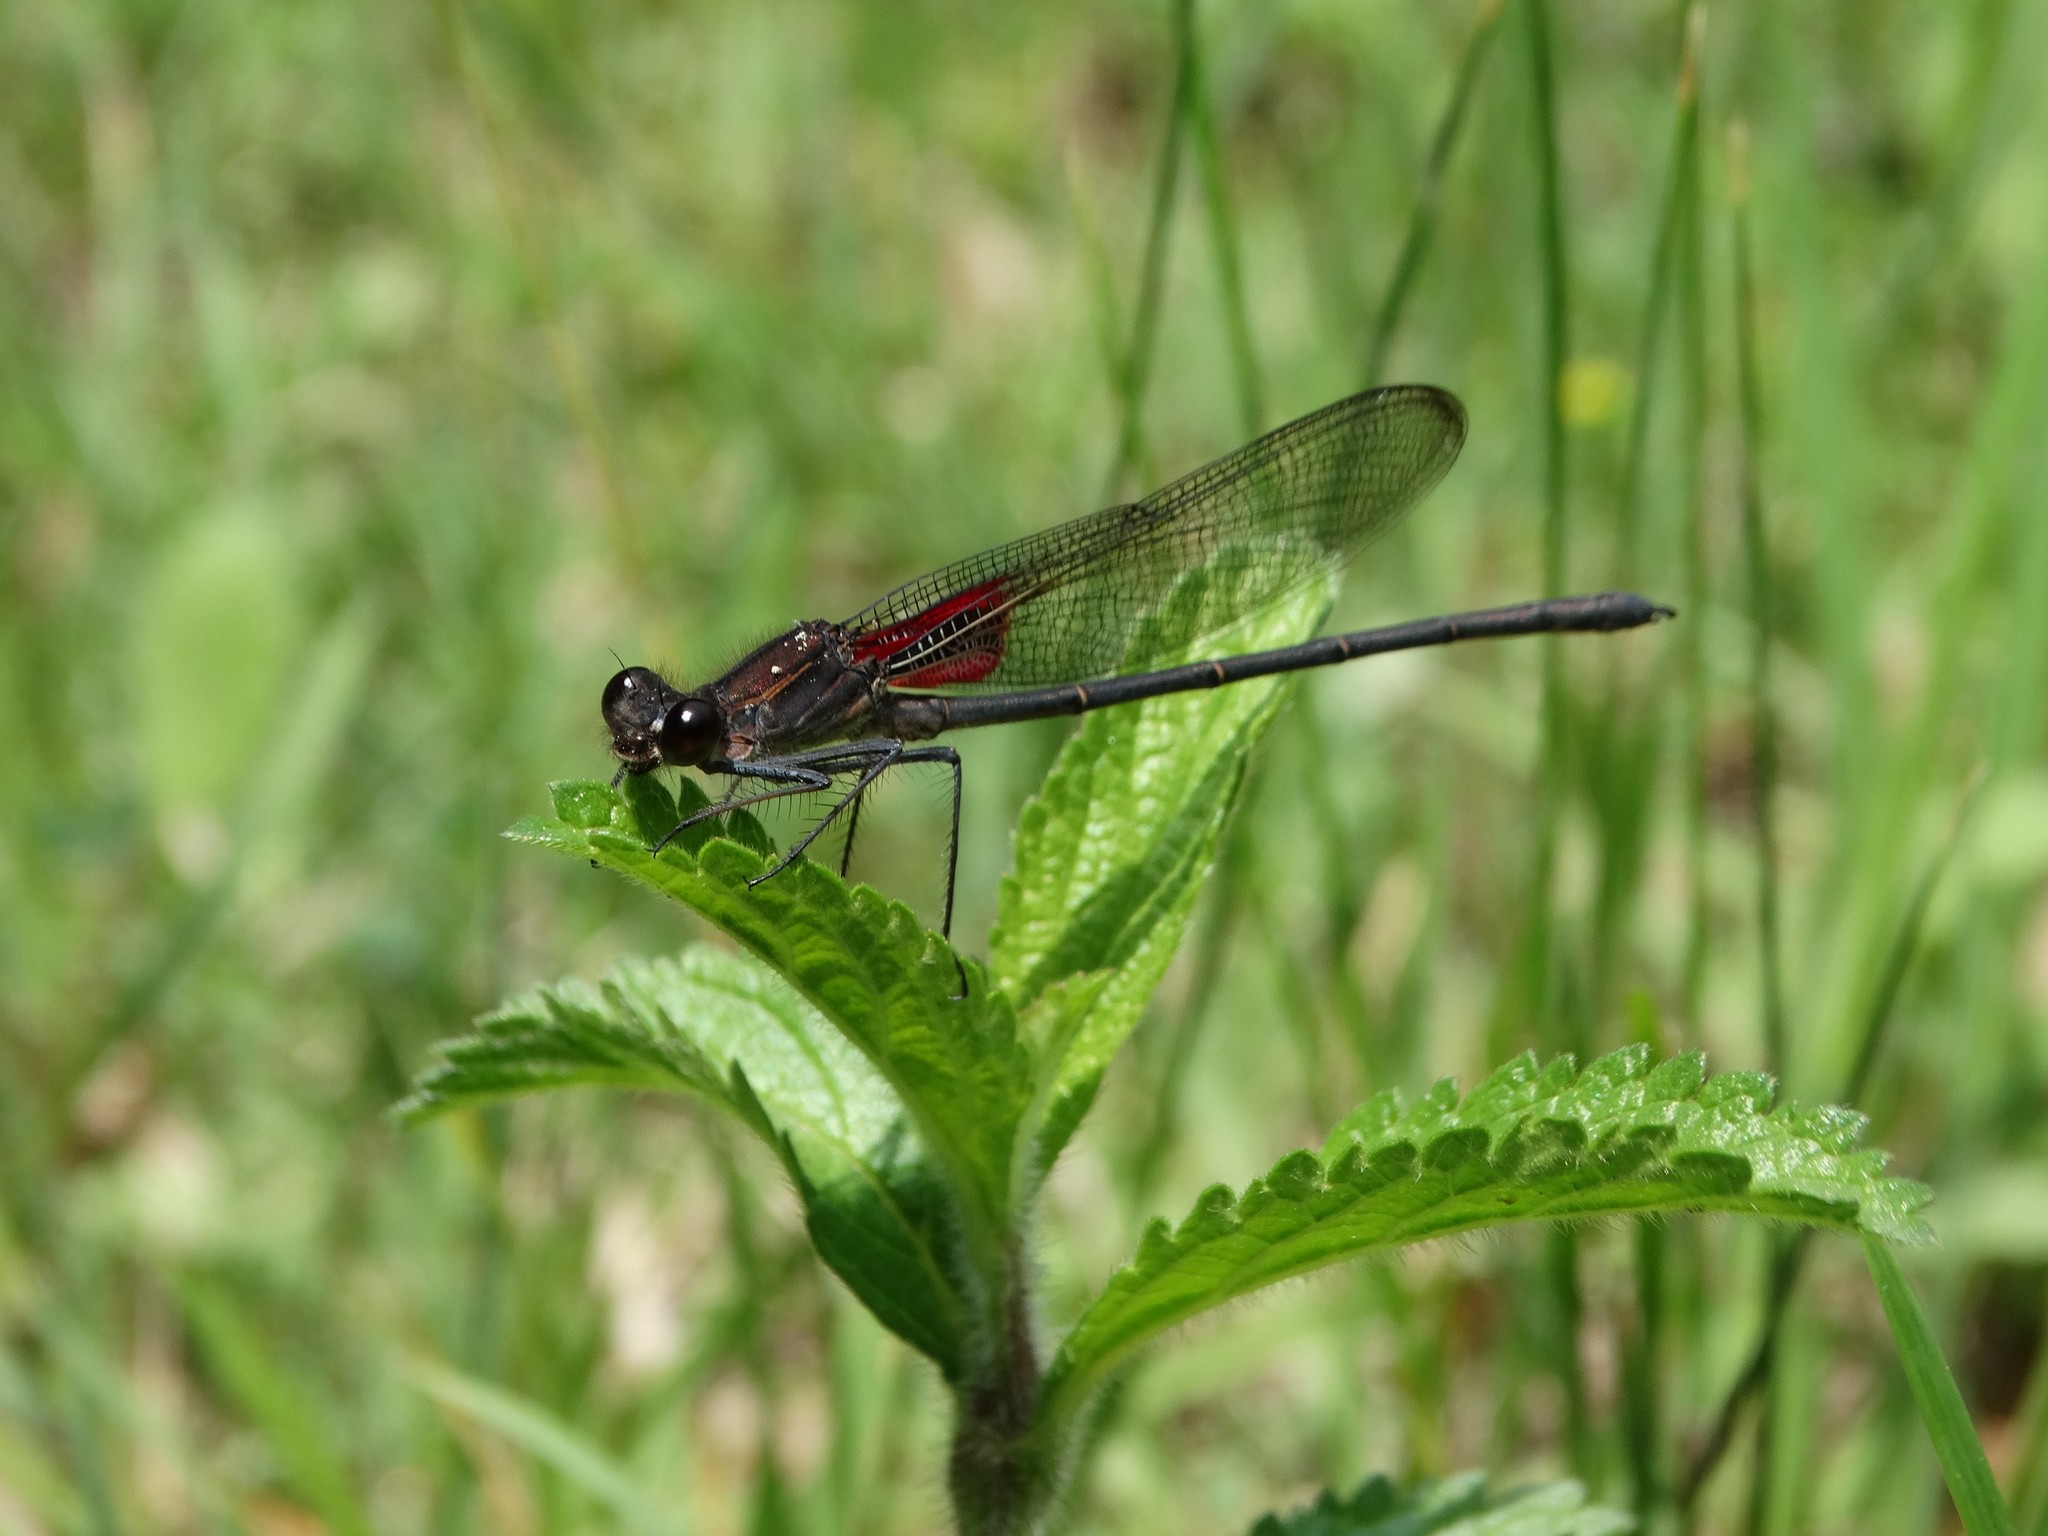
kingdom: Animalia
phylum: Arthropoda
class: Insecta
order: Odonata
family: Calopterygidae
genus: Hetaerina
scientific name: Hetaerina vulnerata
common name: Canyon rubyspot
